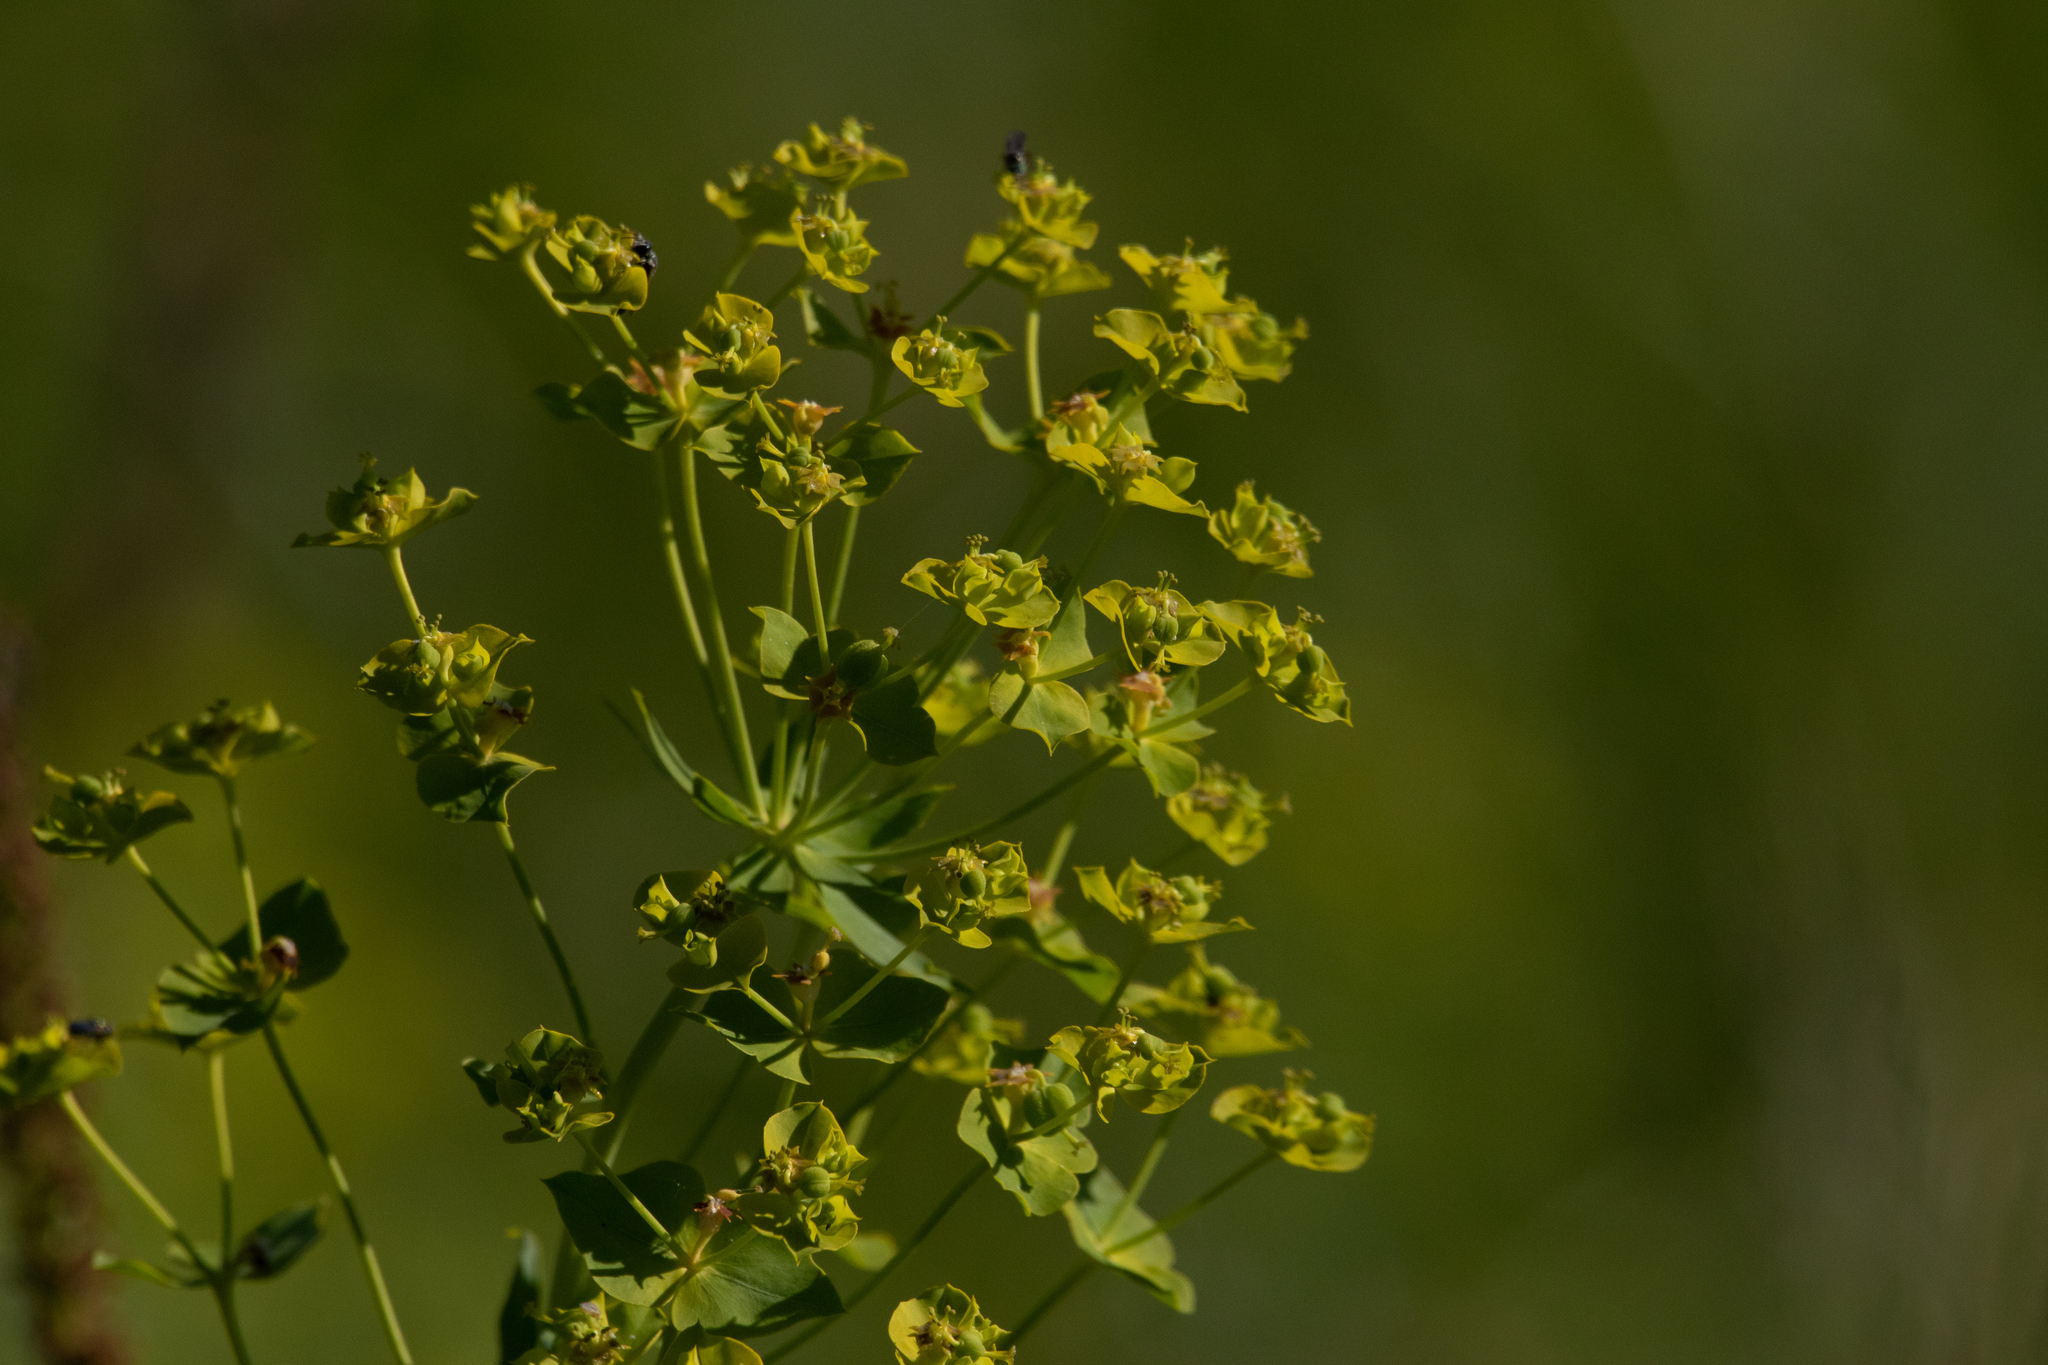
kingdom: Plantae
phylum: Tracheophyta
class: Magnoliopsida
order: Malpighiales
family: Euphorbiaceae
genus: Euphorbia
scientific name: Euphorbia virgata
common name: Leafy spurge
